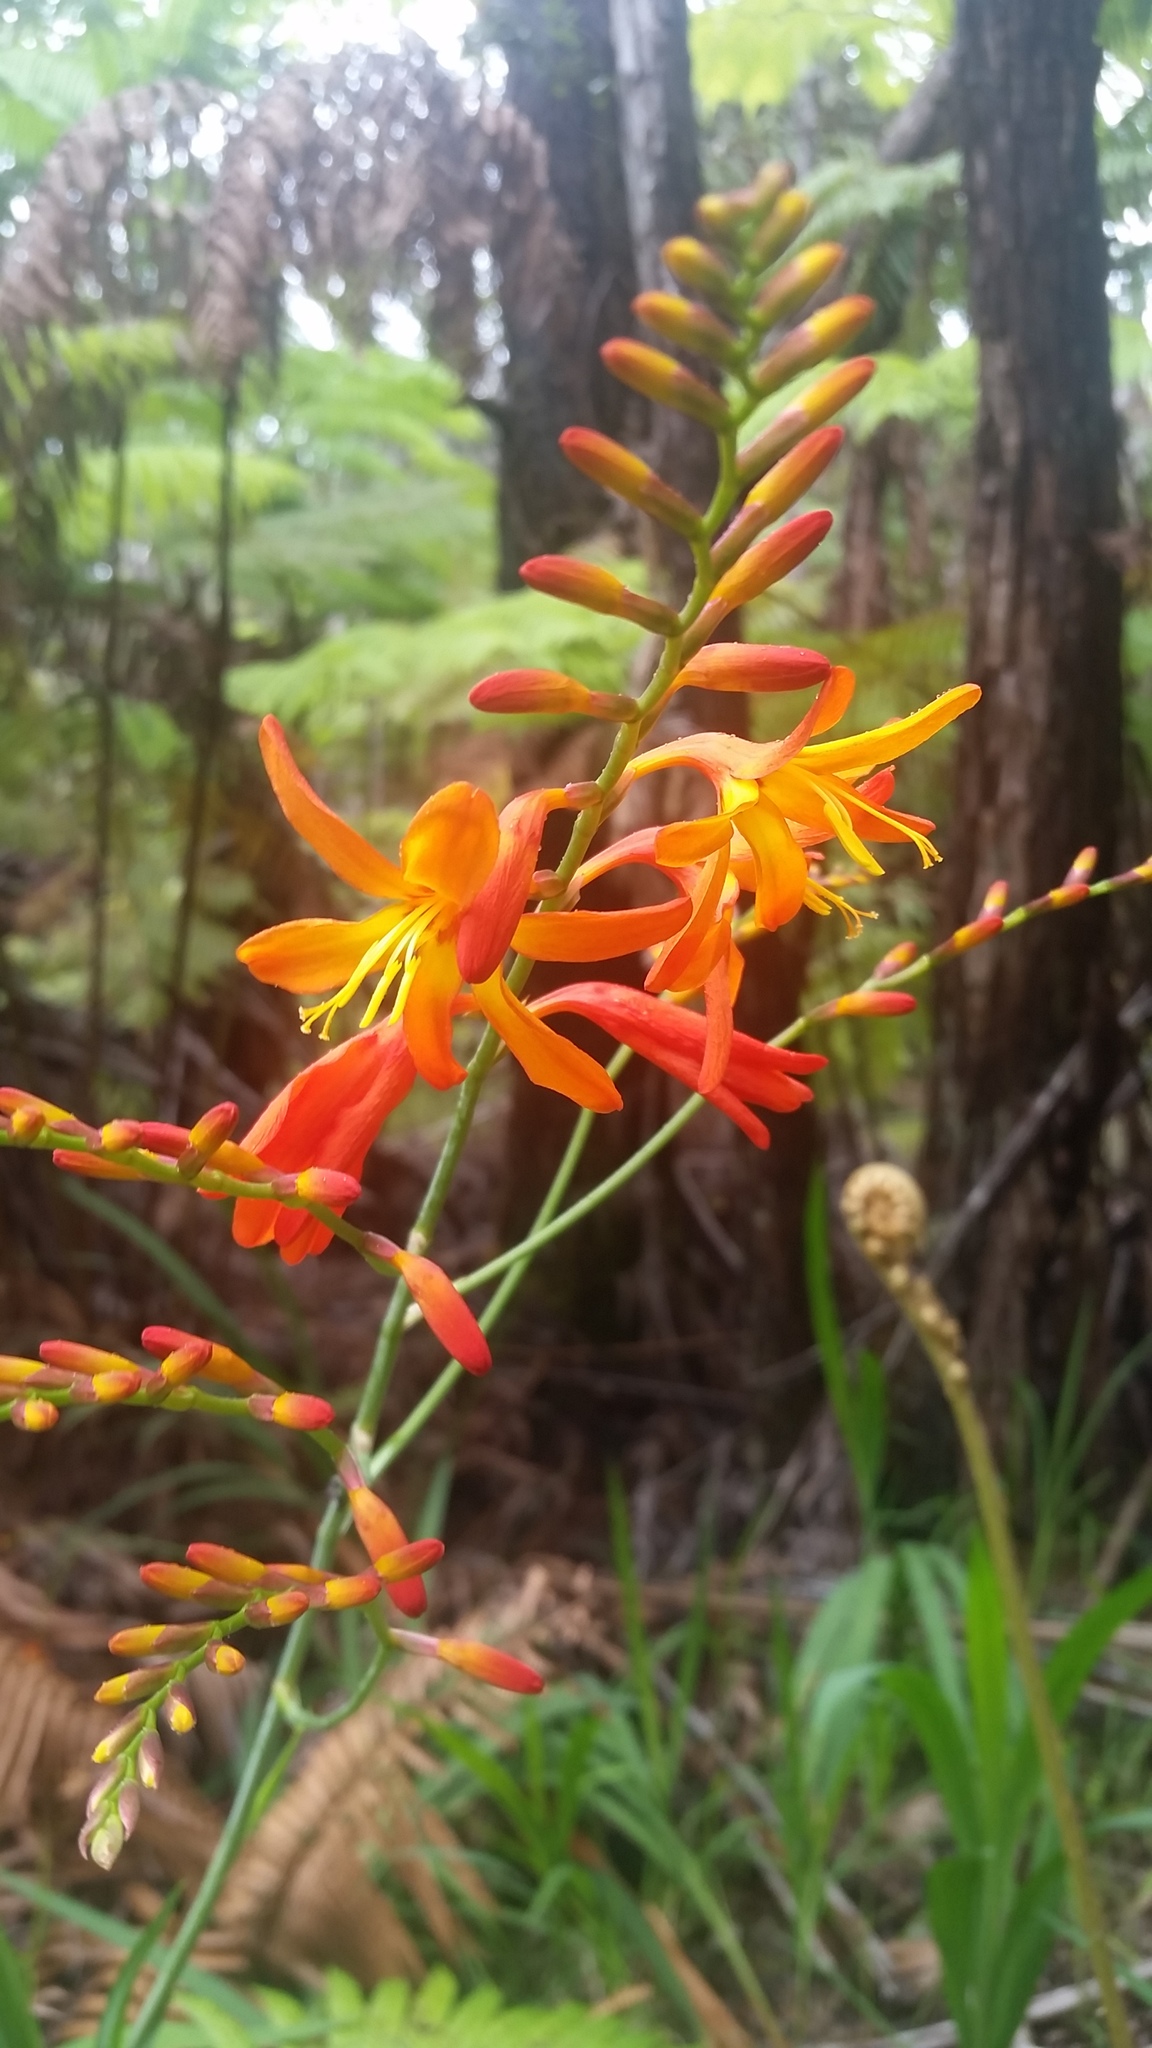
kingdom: Plantae
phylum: Tracheophyta
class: Liliopsida
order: Asparagales
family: Iridaceae
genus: Crocosmia
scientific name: Crocosmia crocosmiiflora
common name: Montbretia
